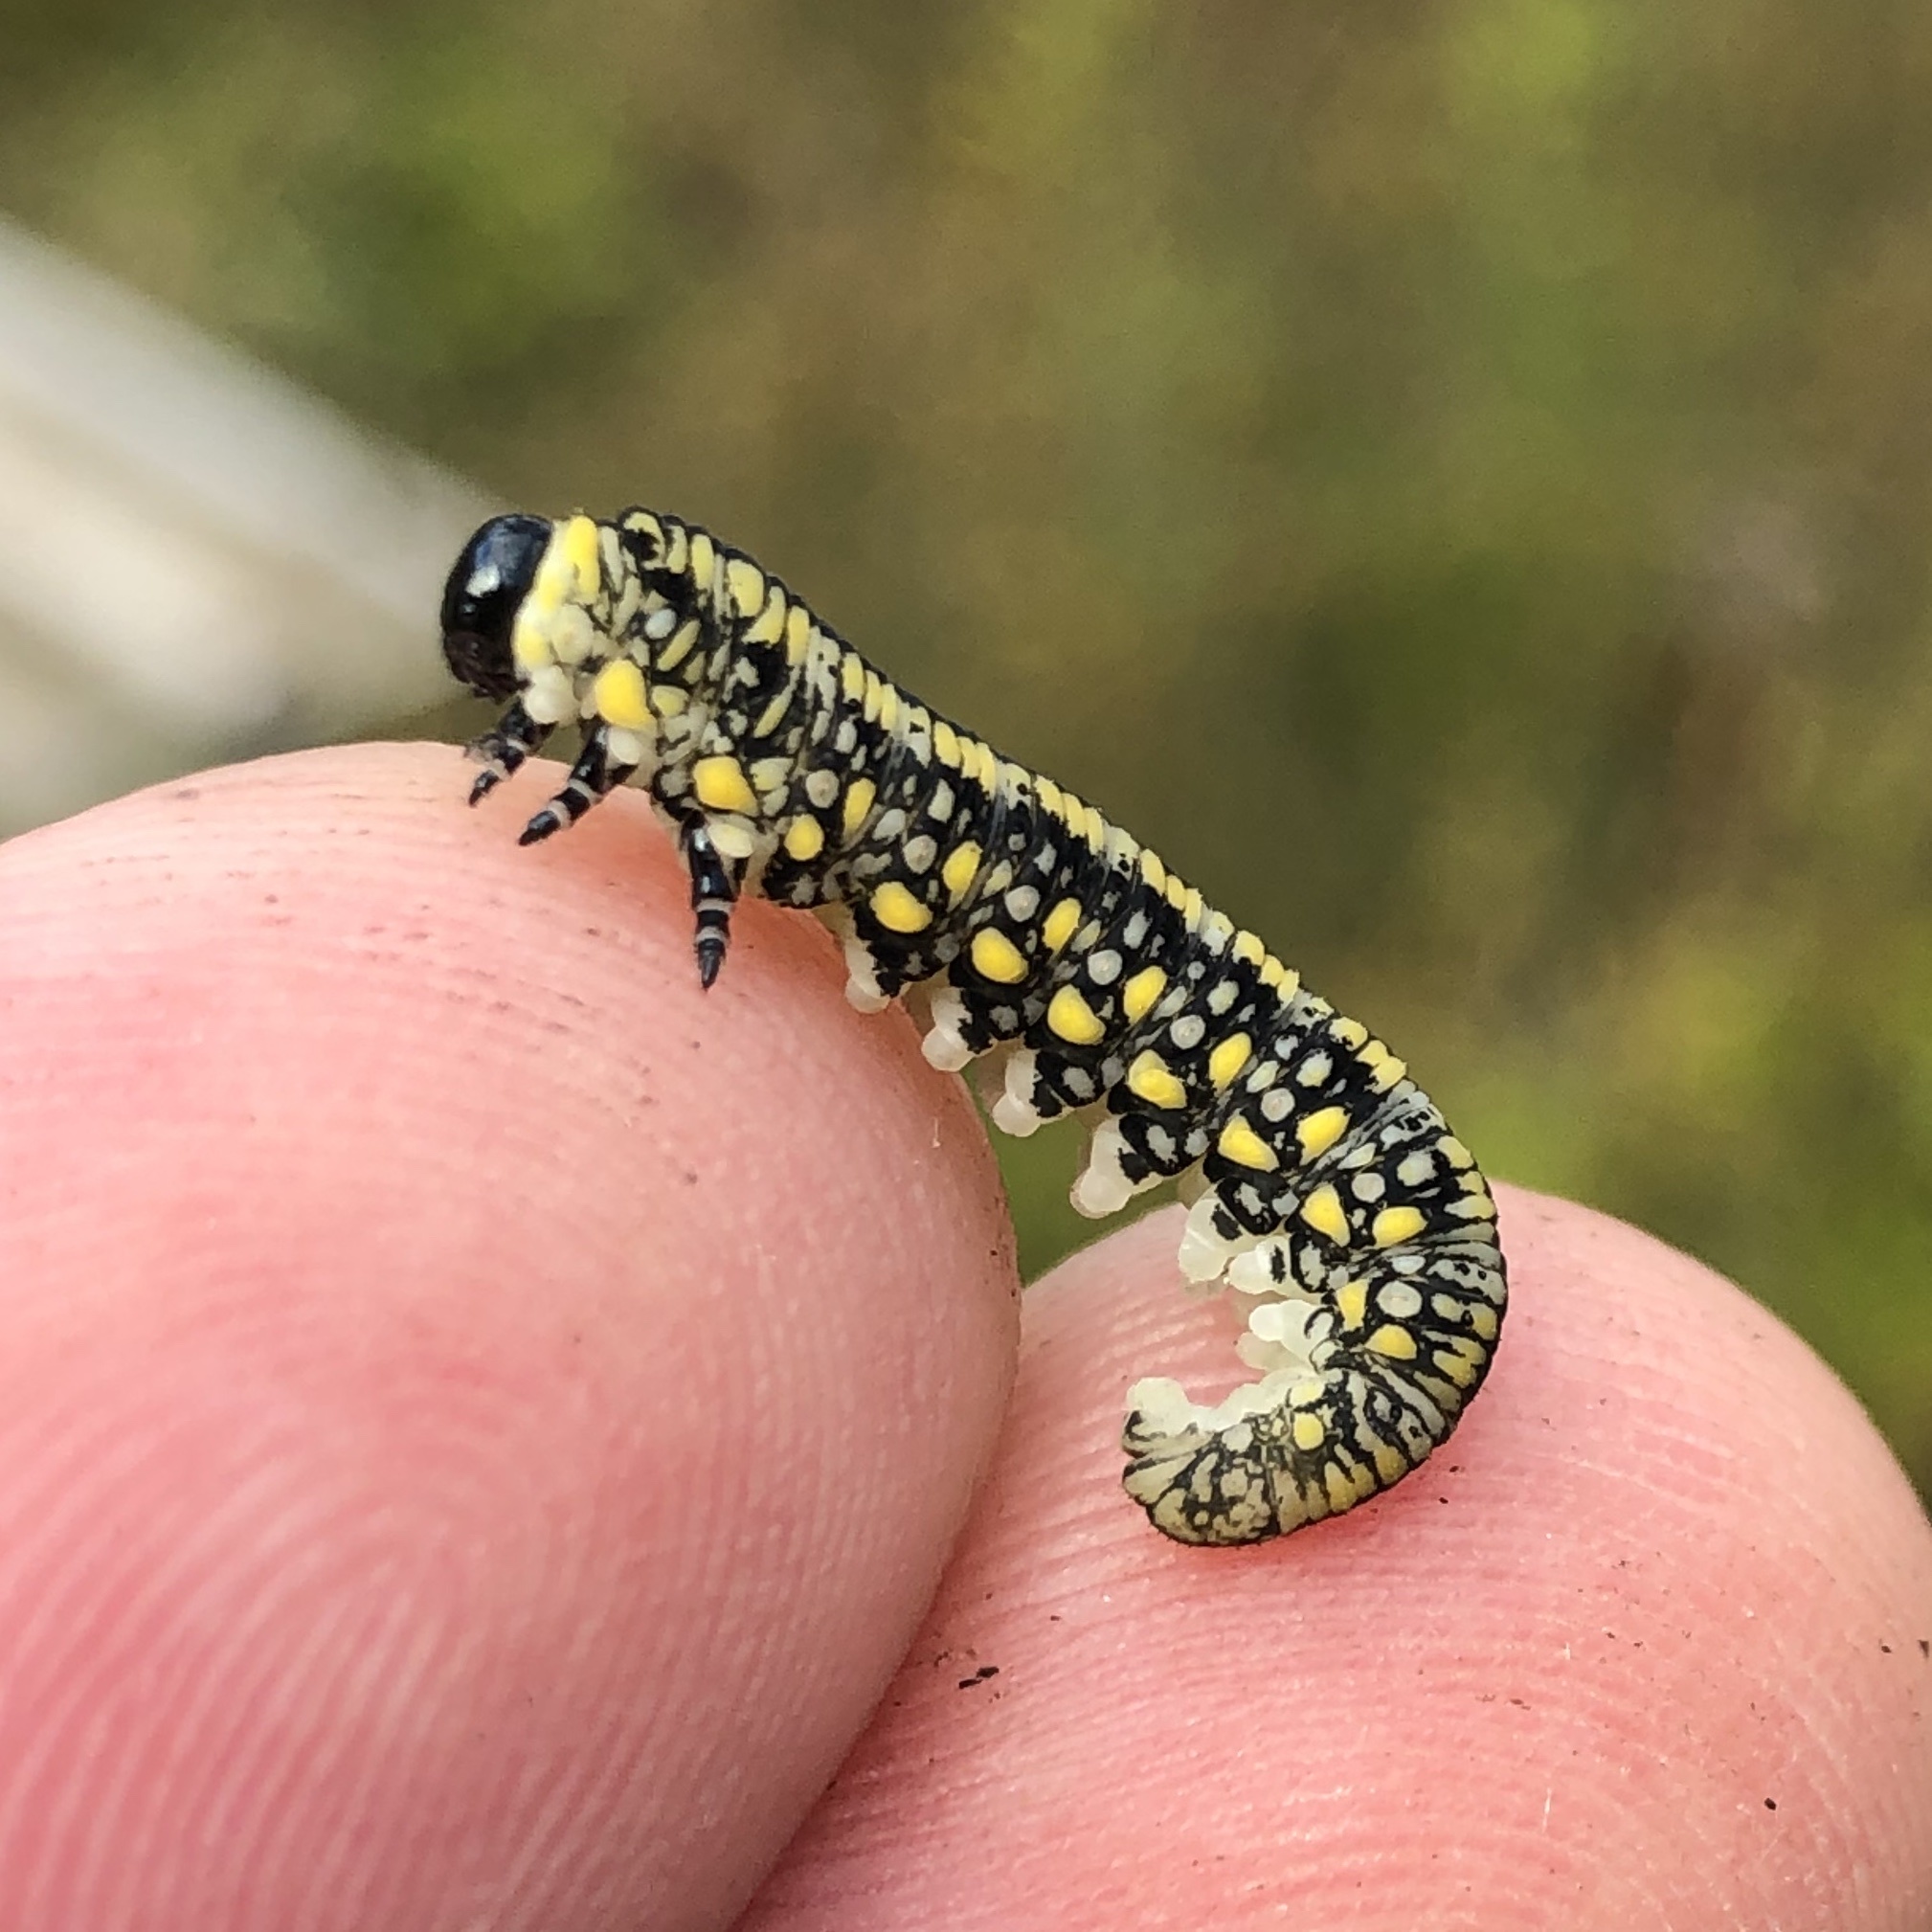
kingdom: Animalia
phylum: Arthropoda
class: Insecta
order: Hymenoptera
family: Diprionidae
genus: Diprion
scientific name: Diprion similis
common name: Pine sawfly
